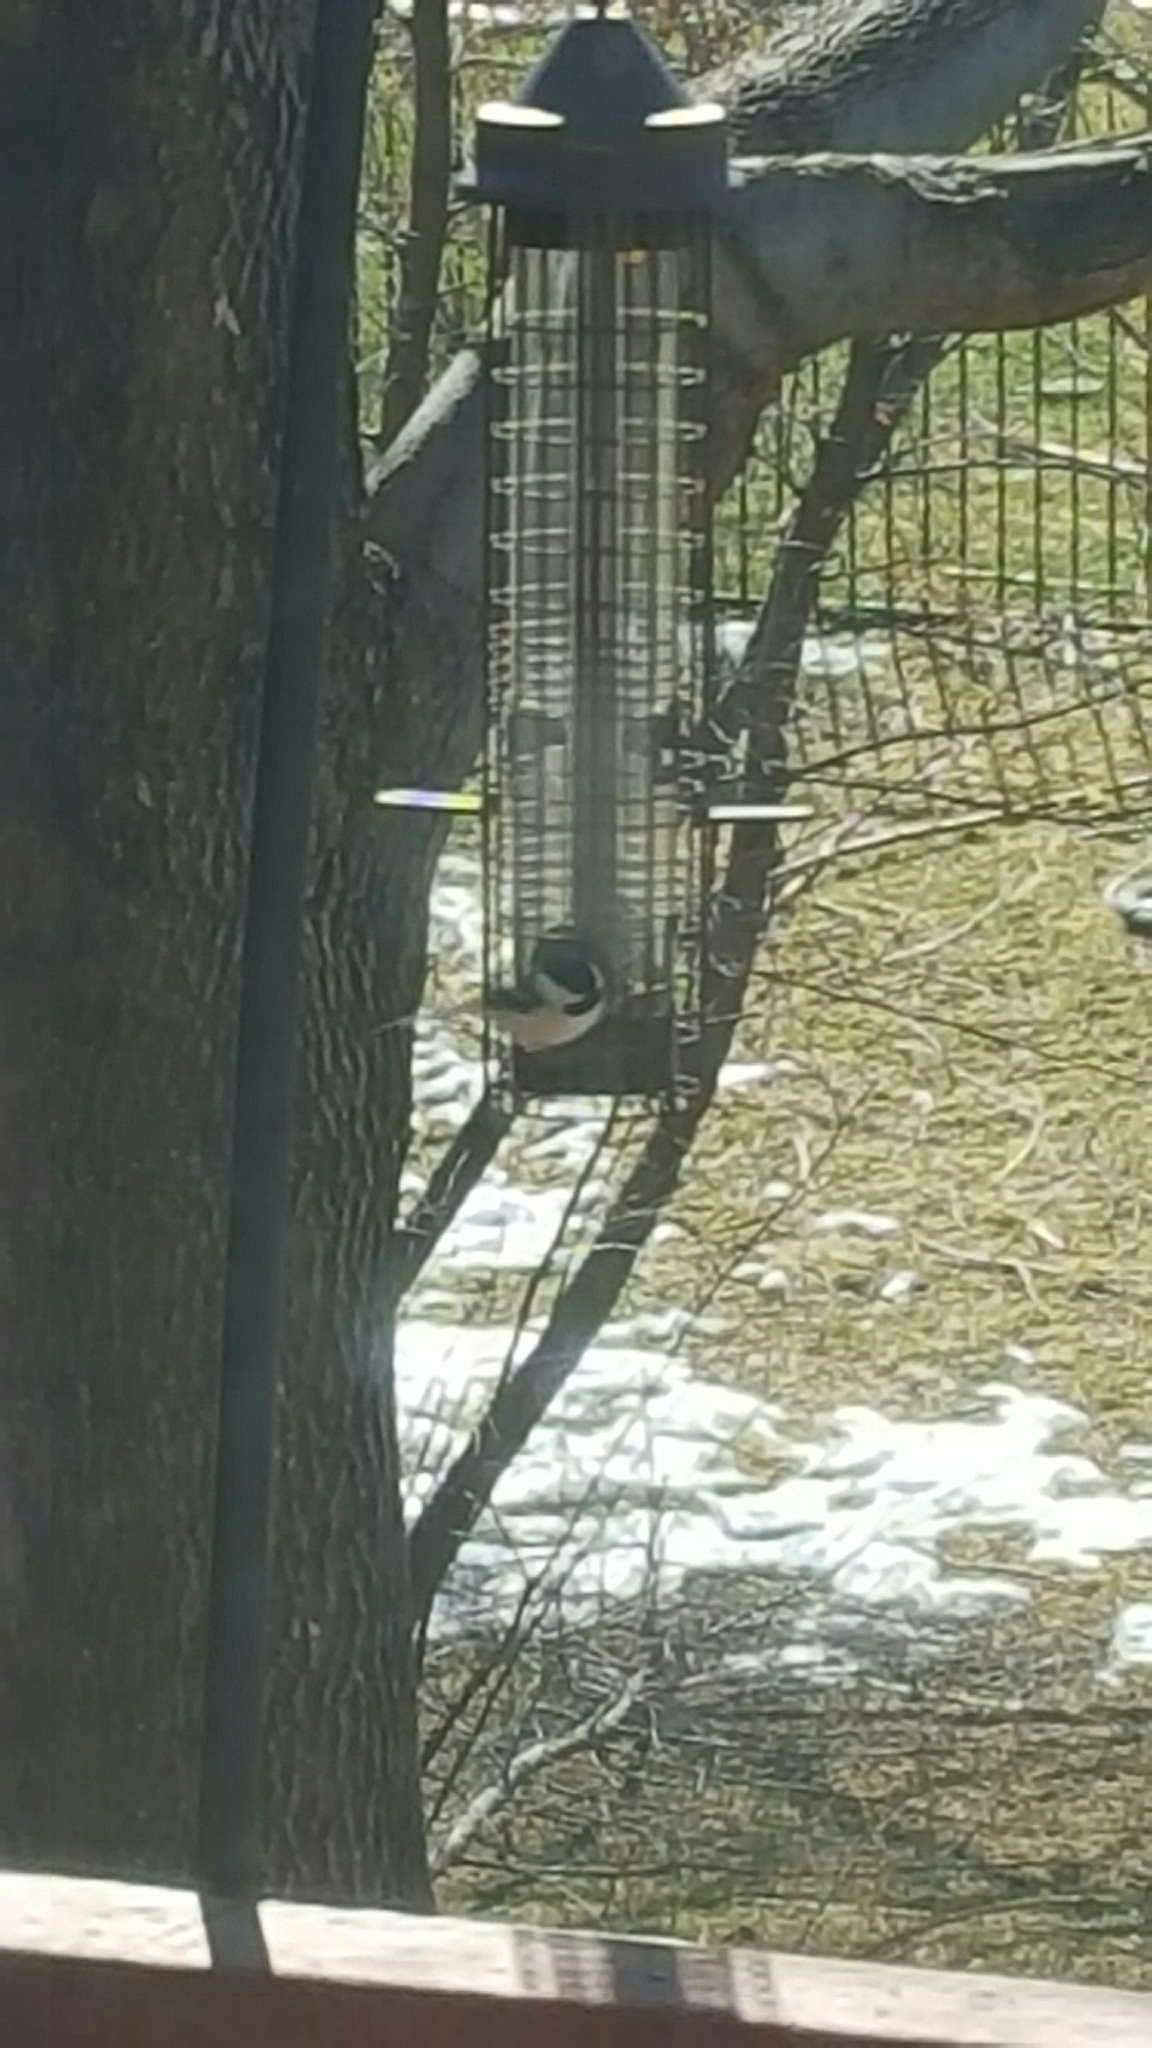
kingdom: Animalia
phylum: Chordata
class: Aves
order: Passeriformes
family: Paridae
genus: Poecile
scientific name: Poecile atricapillus
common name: Black-capped chickadee
